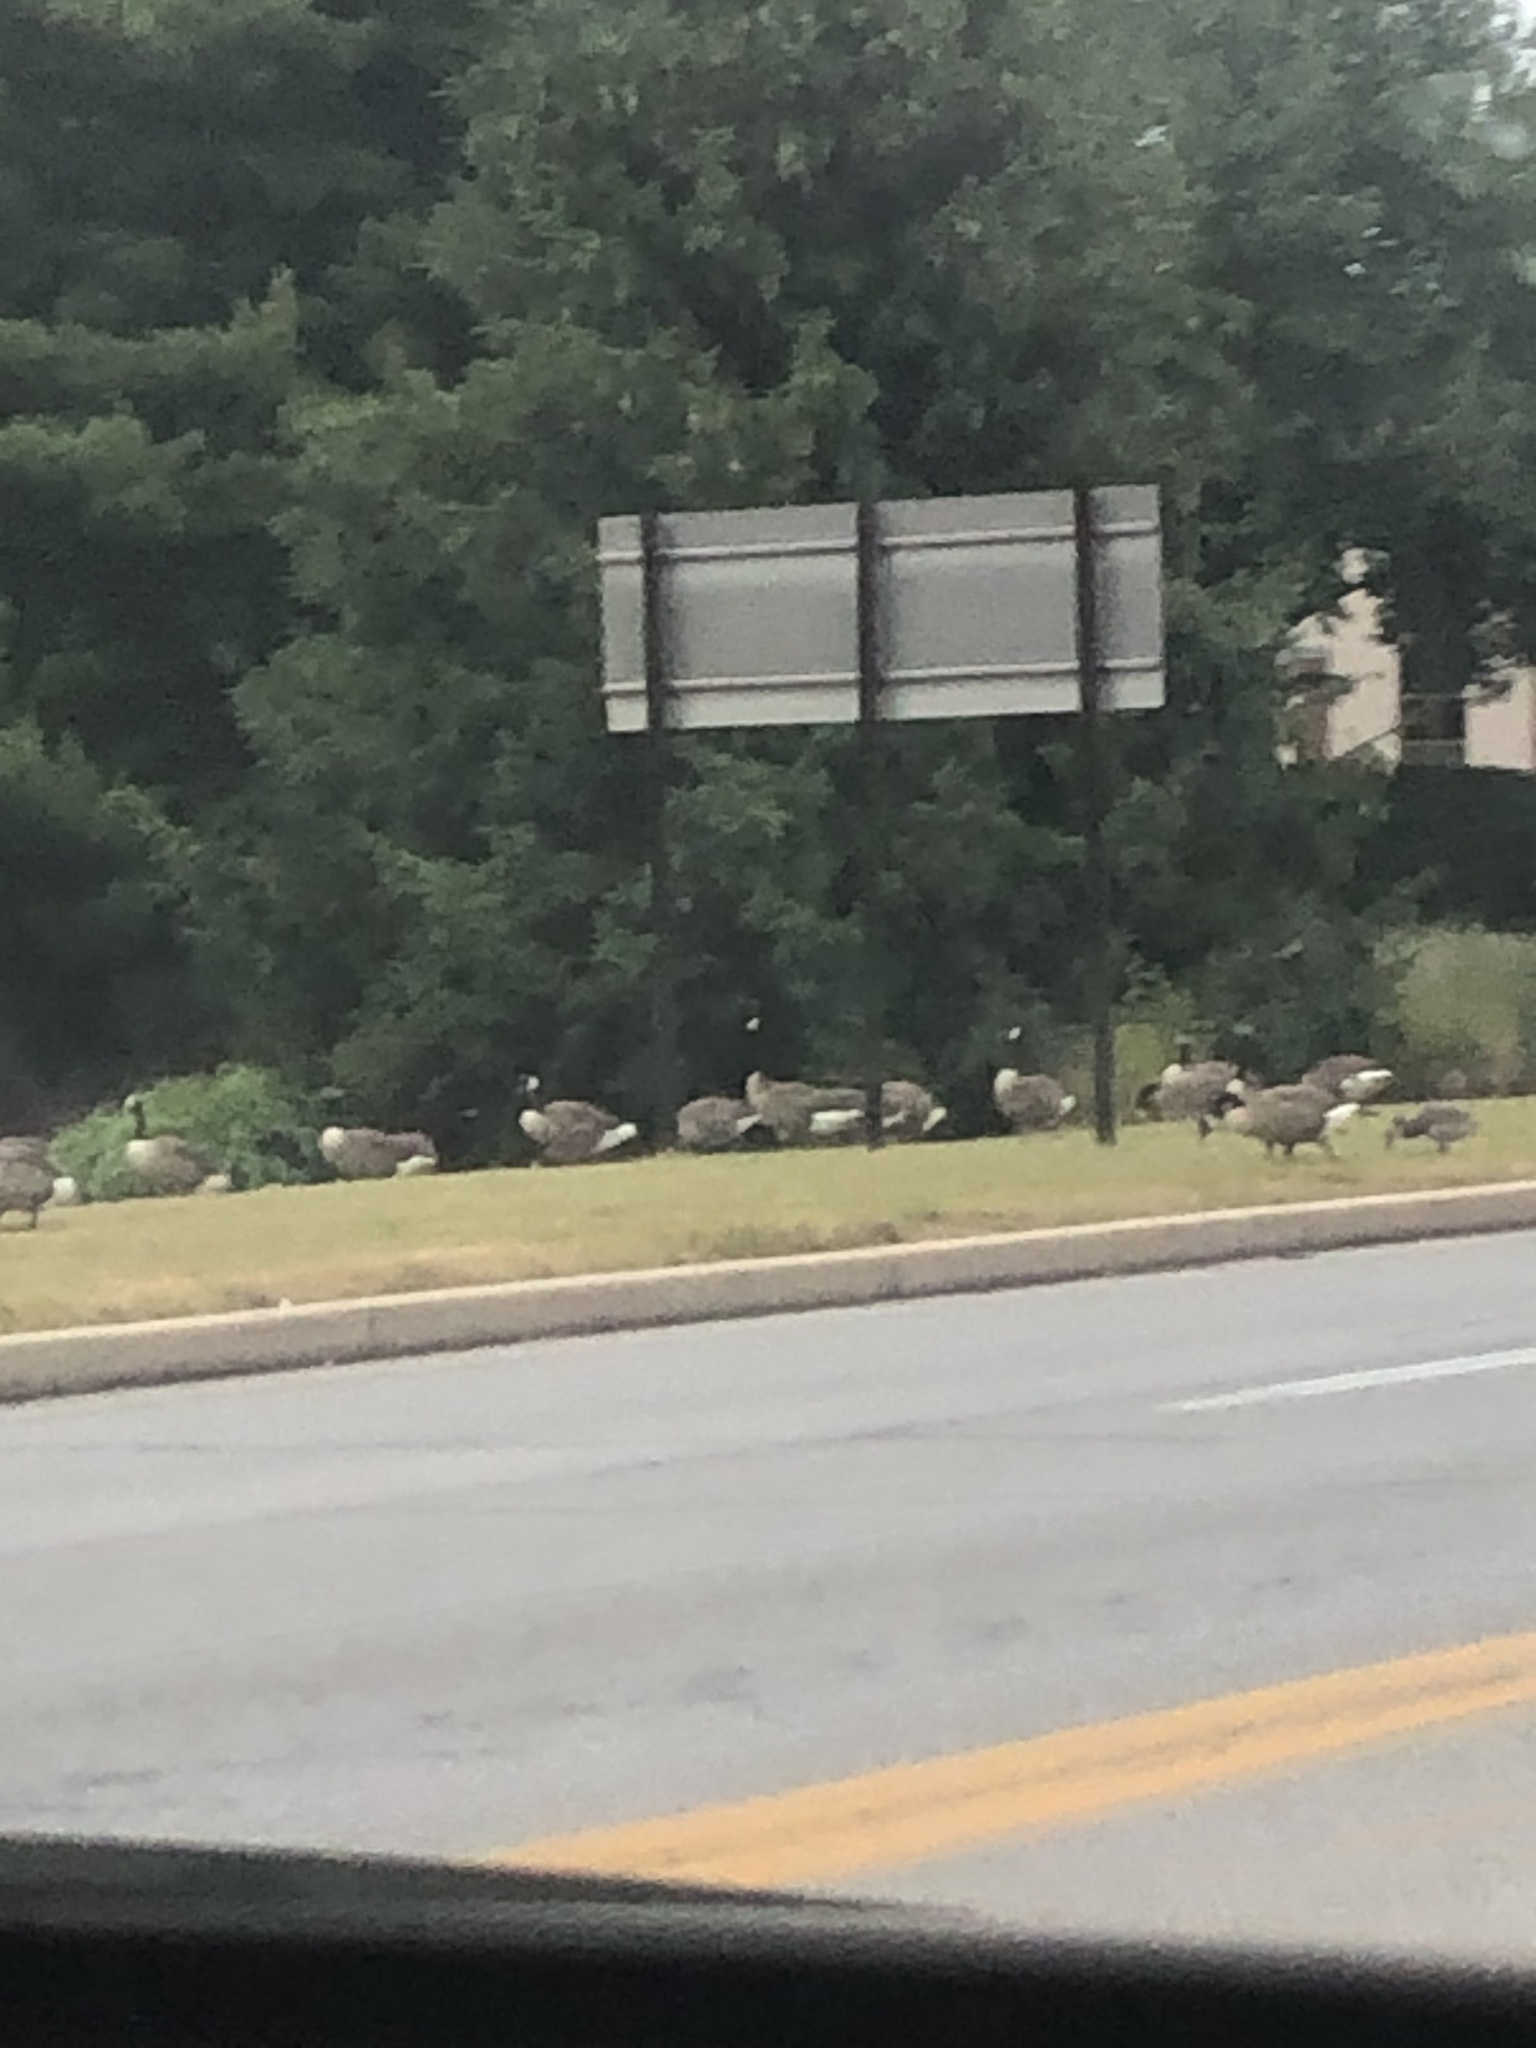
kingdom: Animalia
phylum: Chordata
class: Aves
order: Anseriformes
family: Anatidae
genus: Branta
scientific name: Branta canadensis
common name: Canada goose
